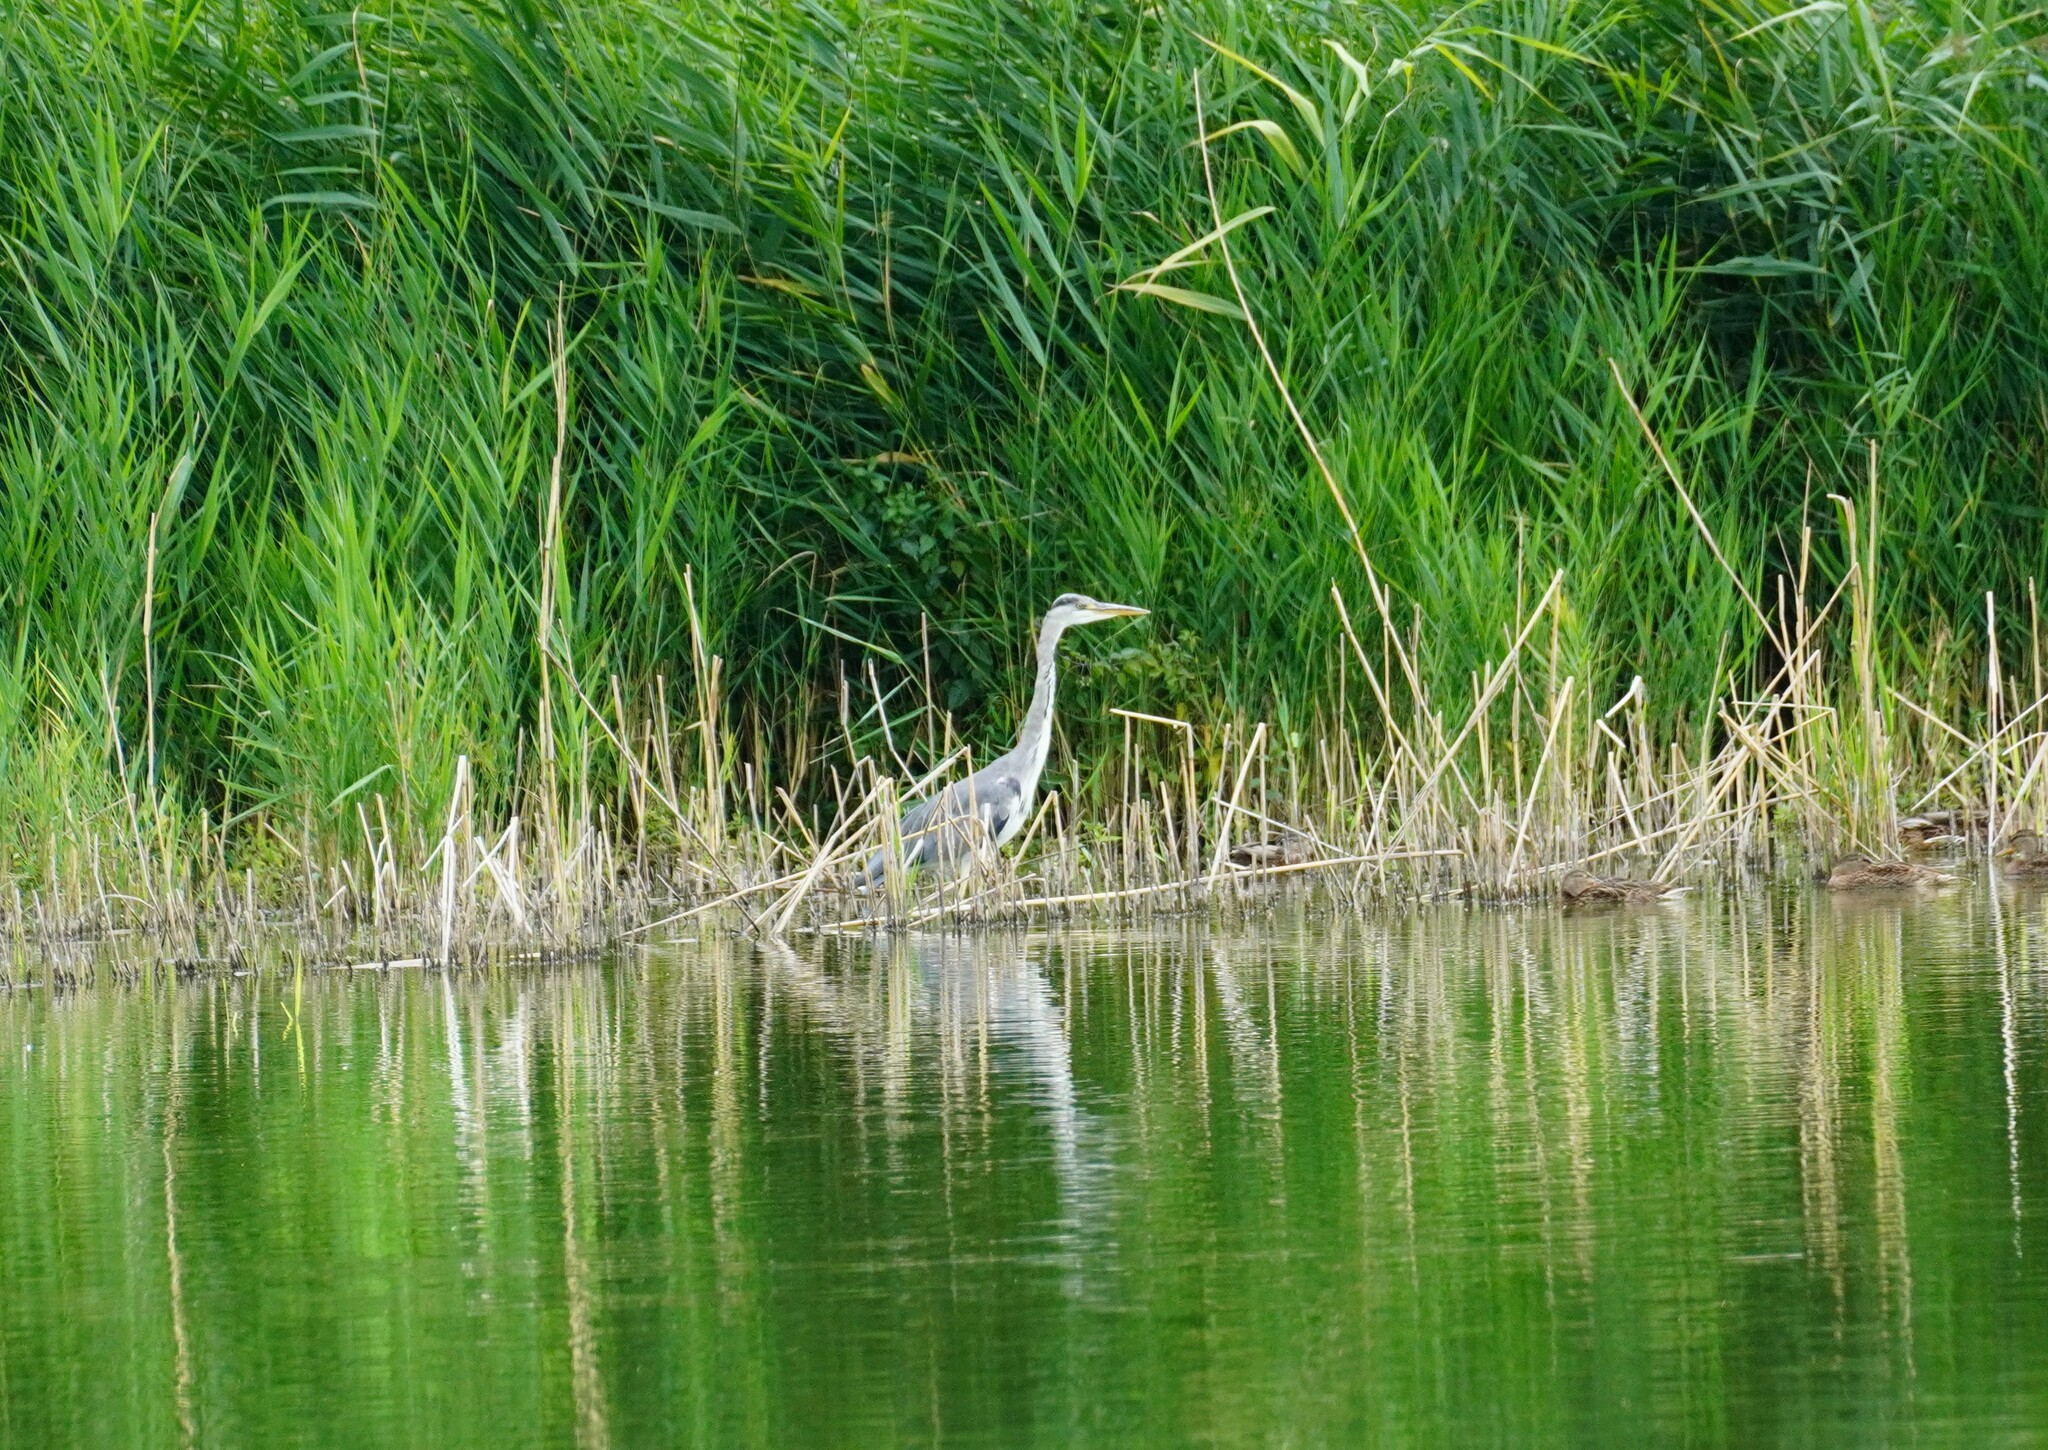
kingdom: Animalia
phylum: Chordata
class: Aves
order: Pelecaniformes
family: Ardeidae
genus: Ardea
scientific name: Ardea cinerea
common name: Grey heron
